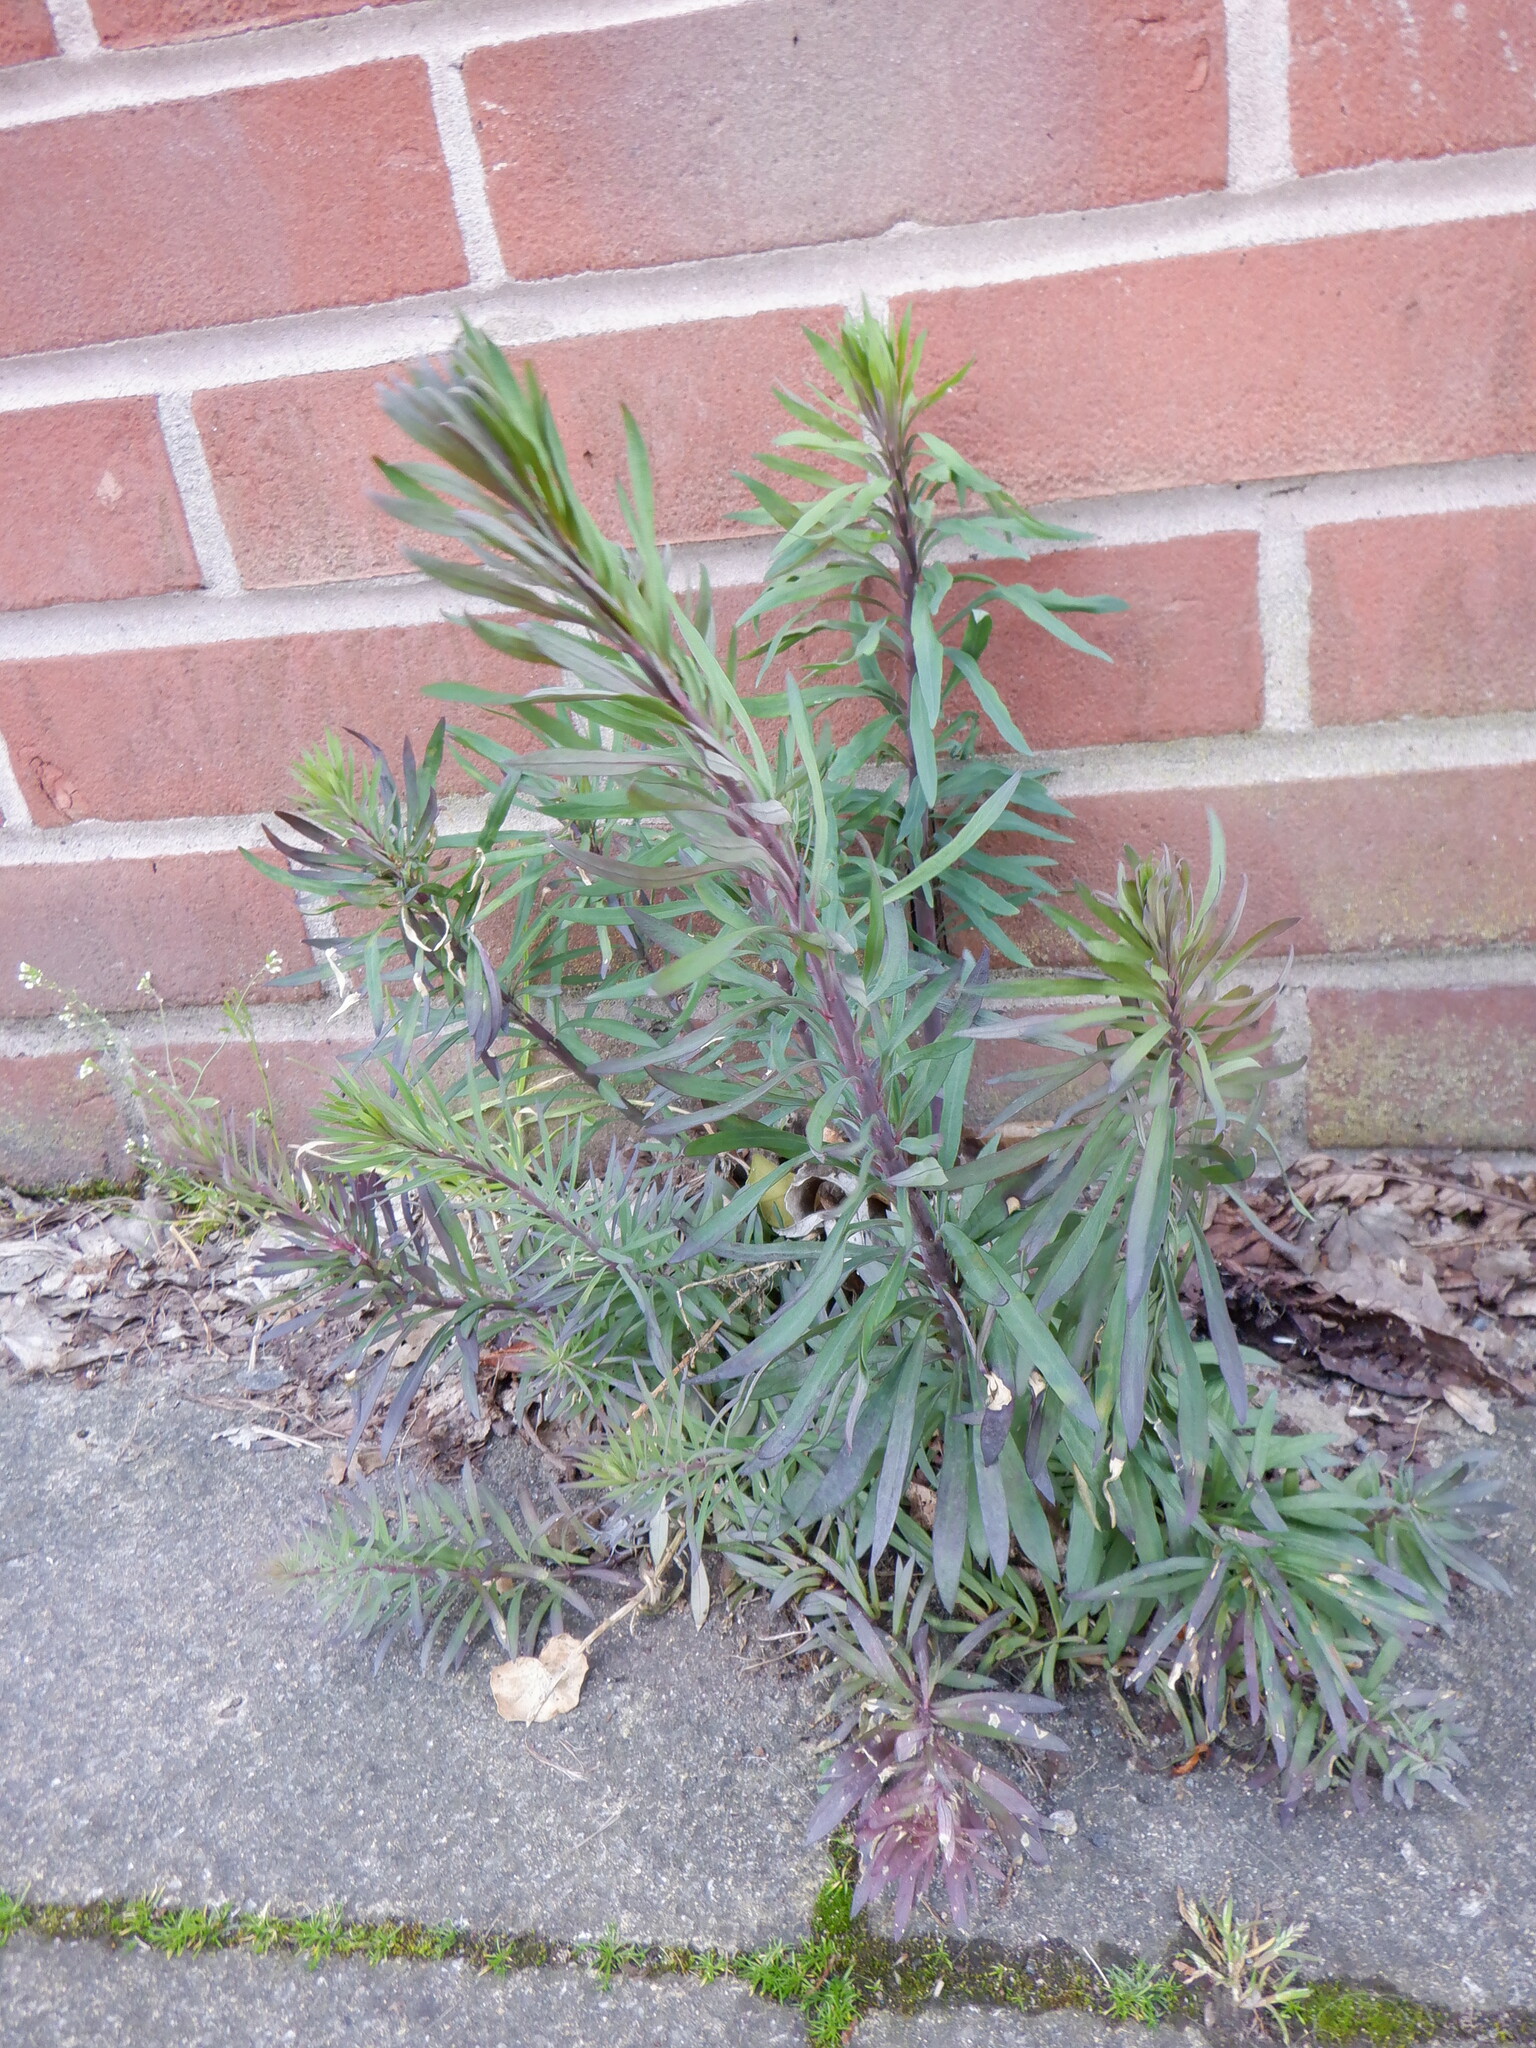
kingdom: Plantae
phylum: Tracheophyta
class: Magnoliopsida
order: Lamiales
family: Plantaginaceae
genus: Linaria
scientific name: Linaria purpurea
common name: Purple toadflax
